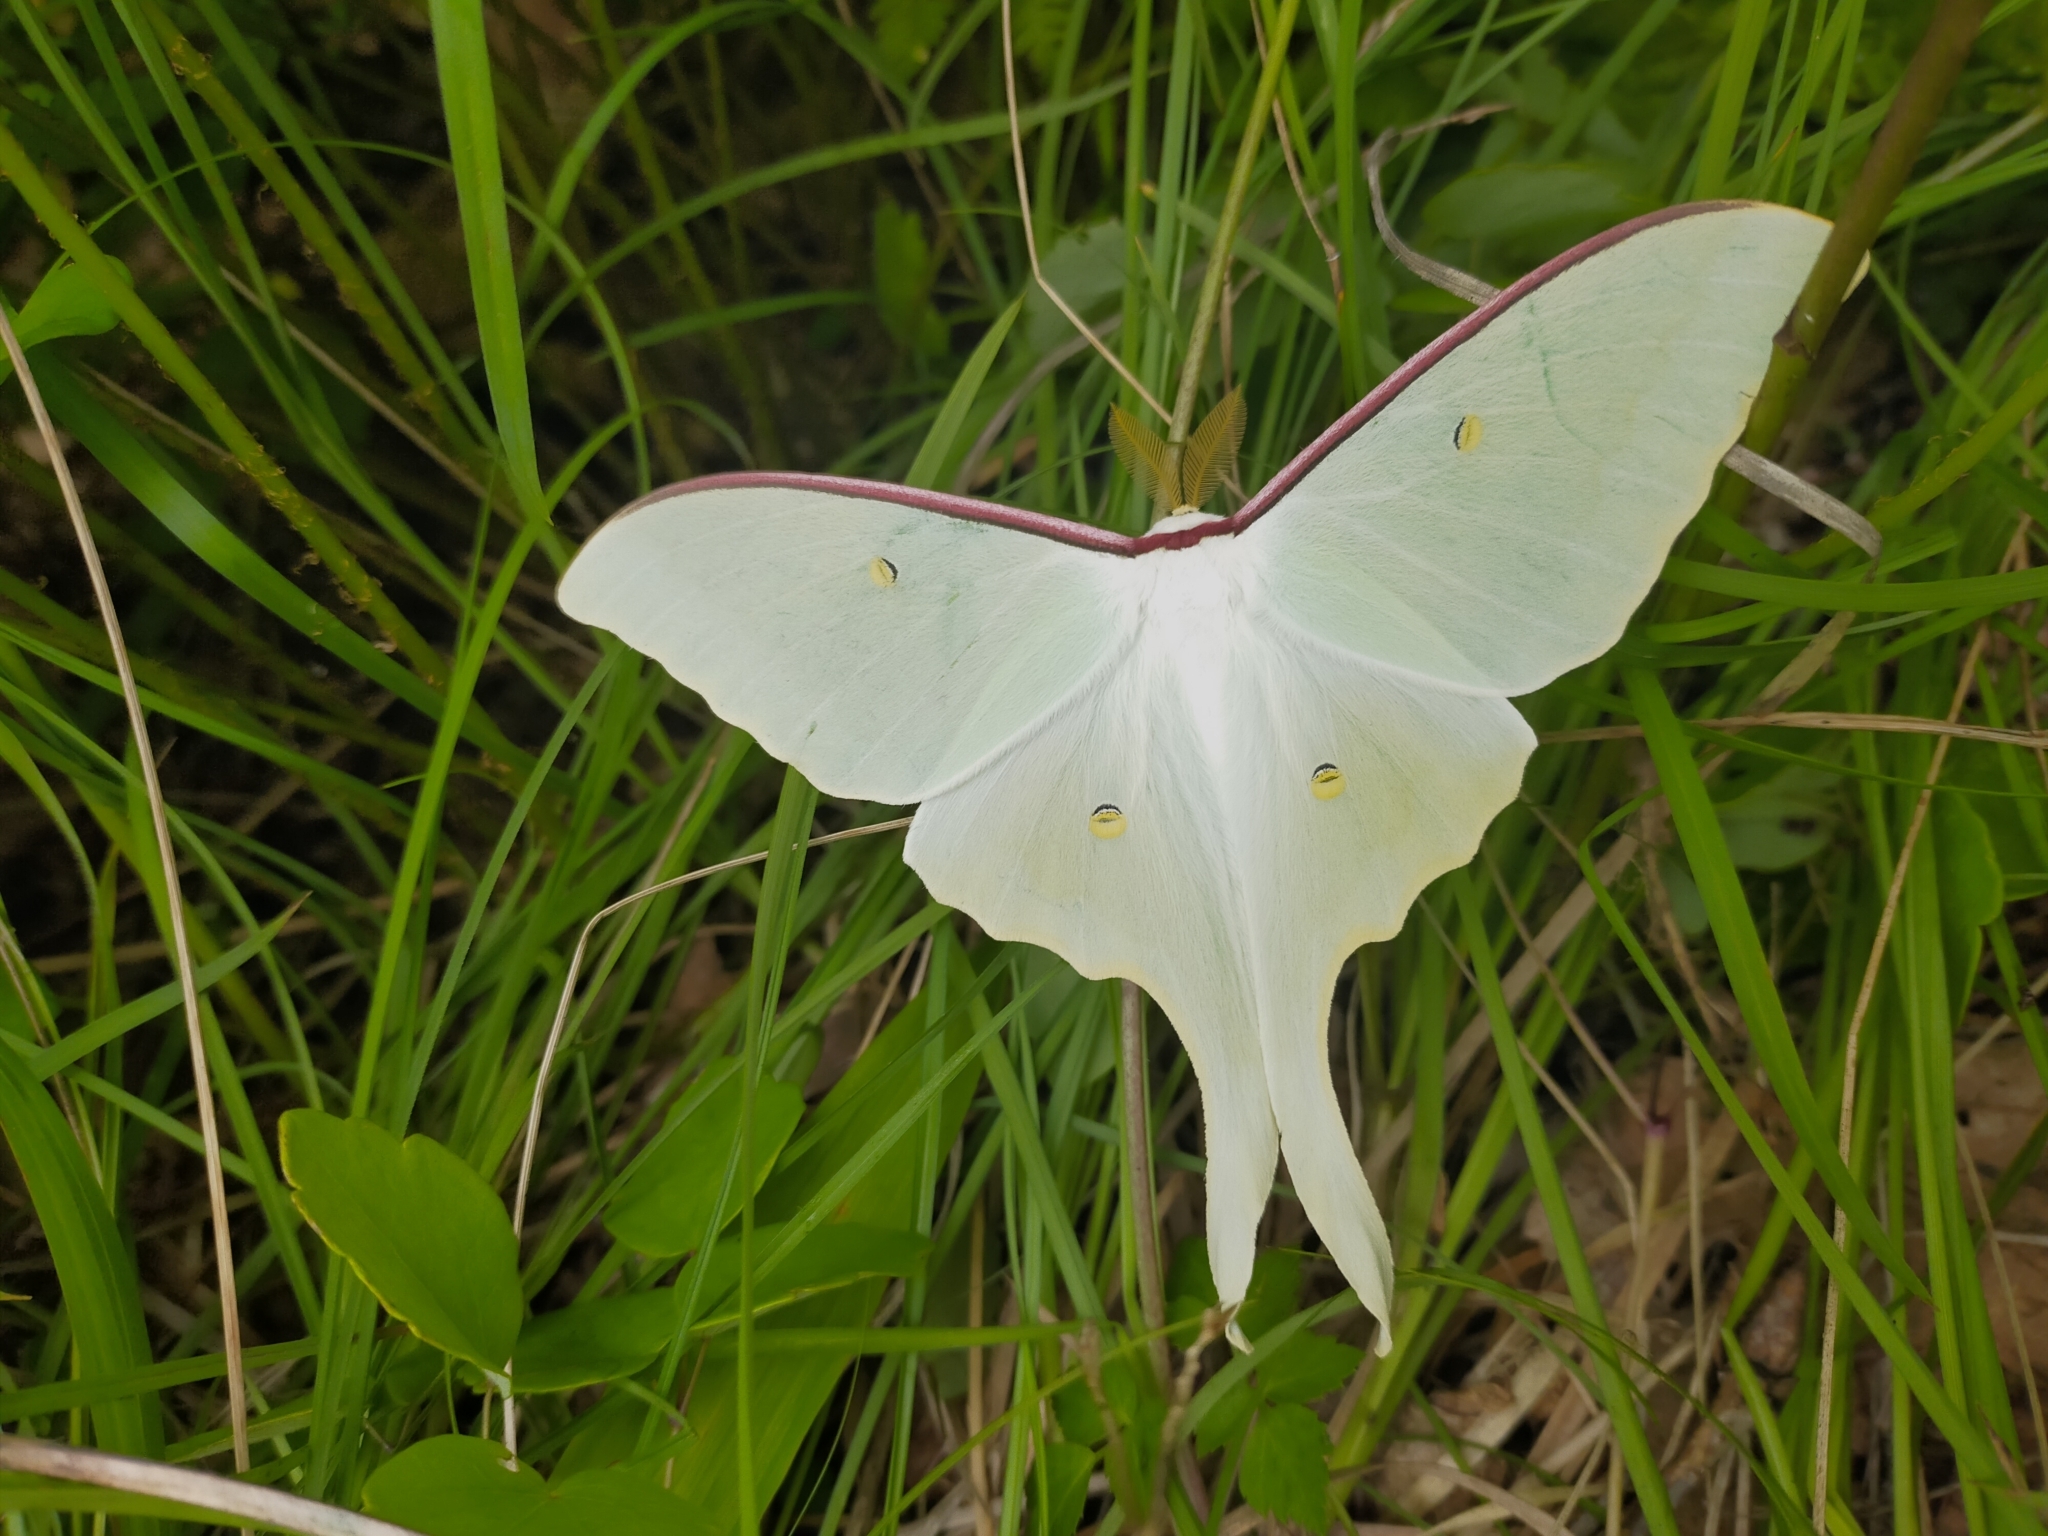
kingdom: Animalia
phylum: Arthropoda
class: Insecta
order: Lepidoptera
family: Saturniidae
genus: Actias
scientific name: Actias artemis
